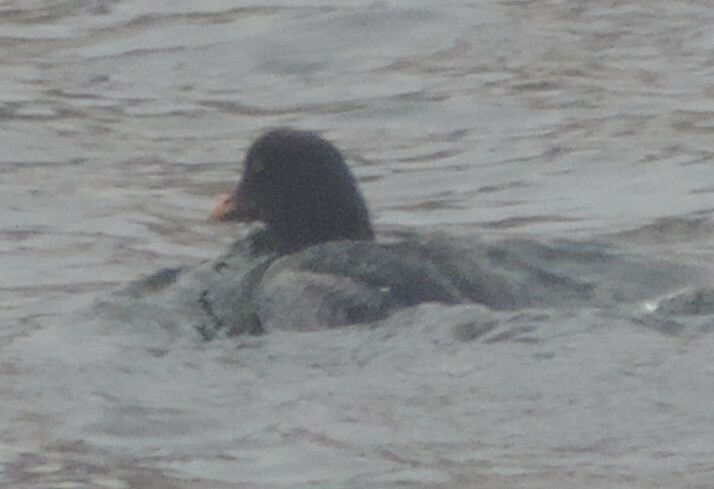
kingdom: Animalia
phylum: Chordata
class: Aves
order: Anseriformes
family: Anatidae
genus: Bucephala
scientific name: Bucephala clangula
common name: Common goldeneye
